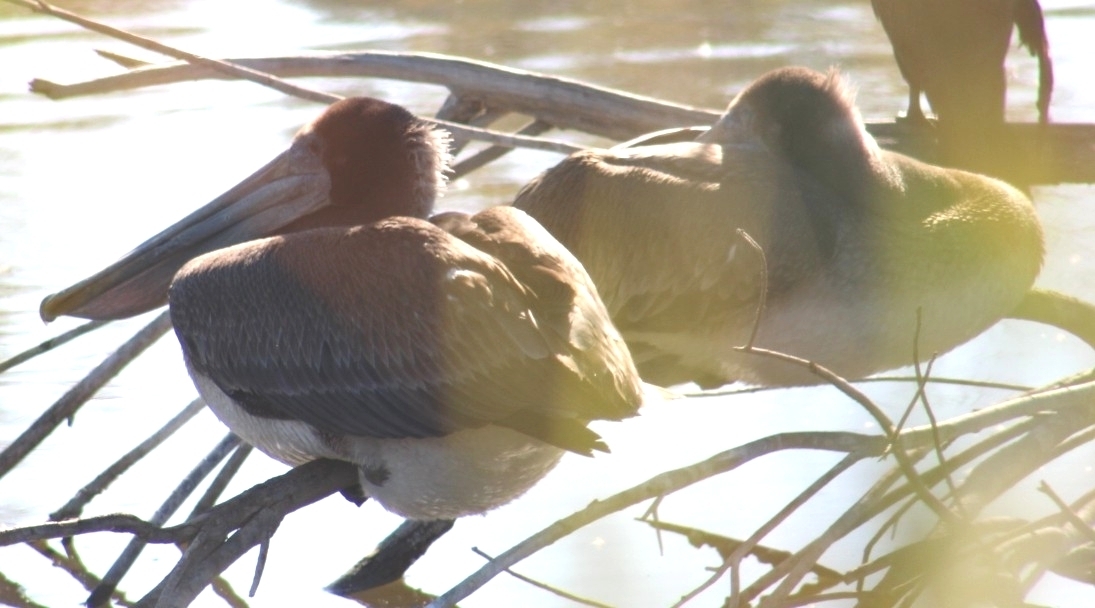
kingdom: Animalia
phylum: Chordata
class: Aves
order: Pelecaniformes
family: Pelecanidae
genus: Pelecanus
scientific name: Pelecanus occidentalis
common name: Brown pelican
